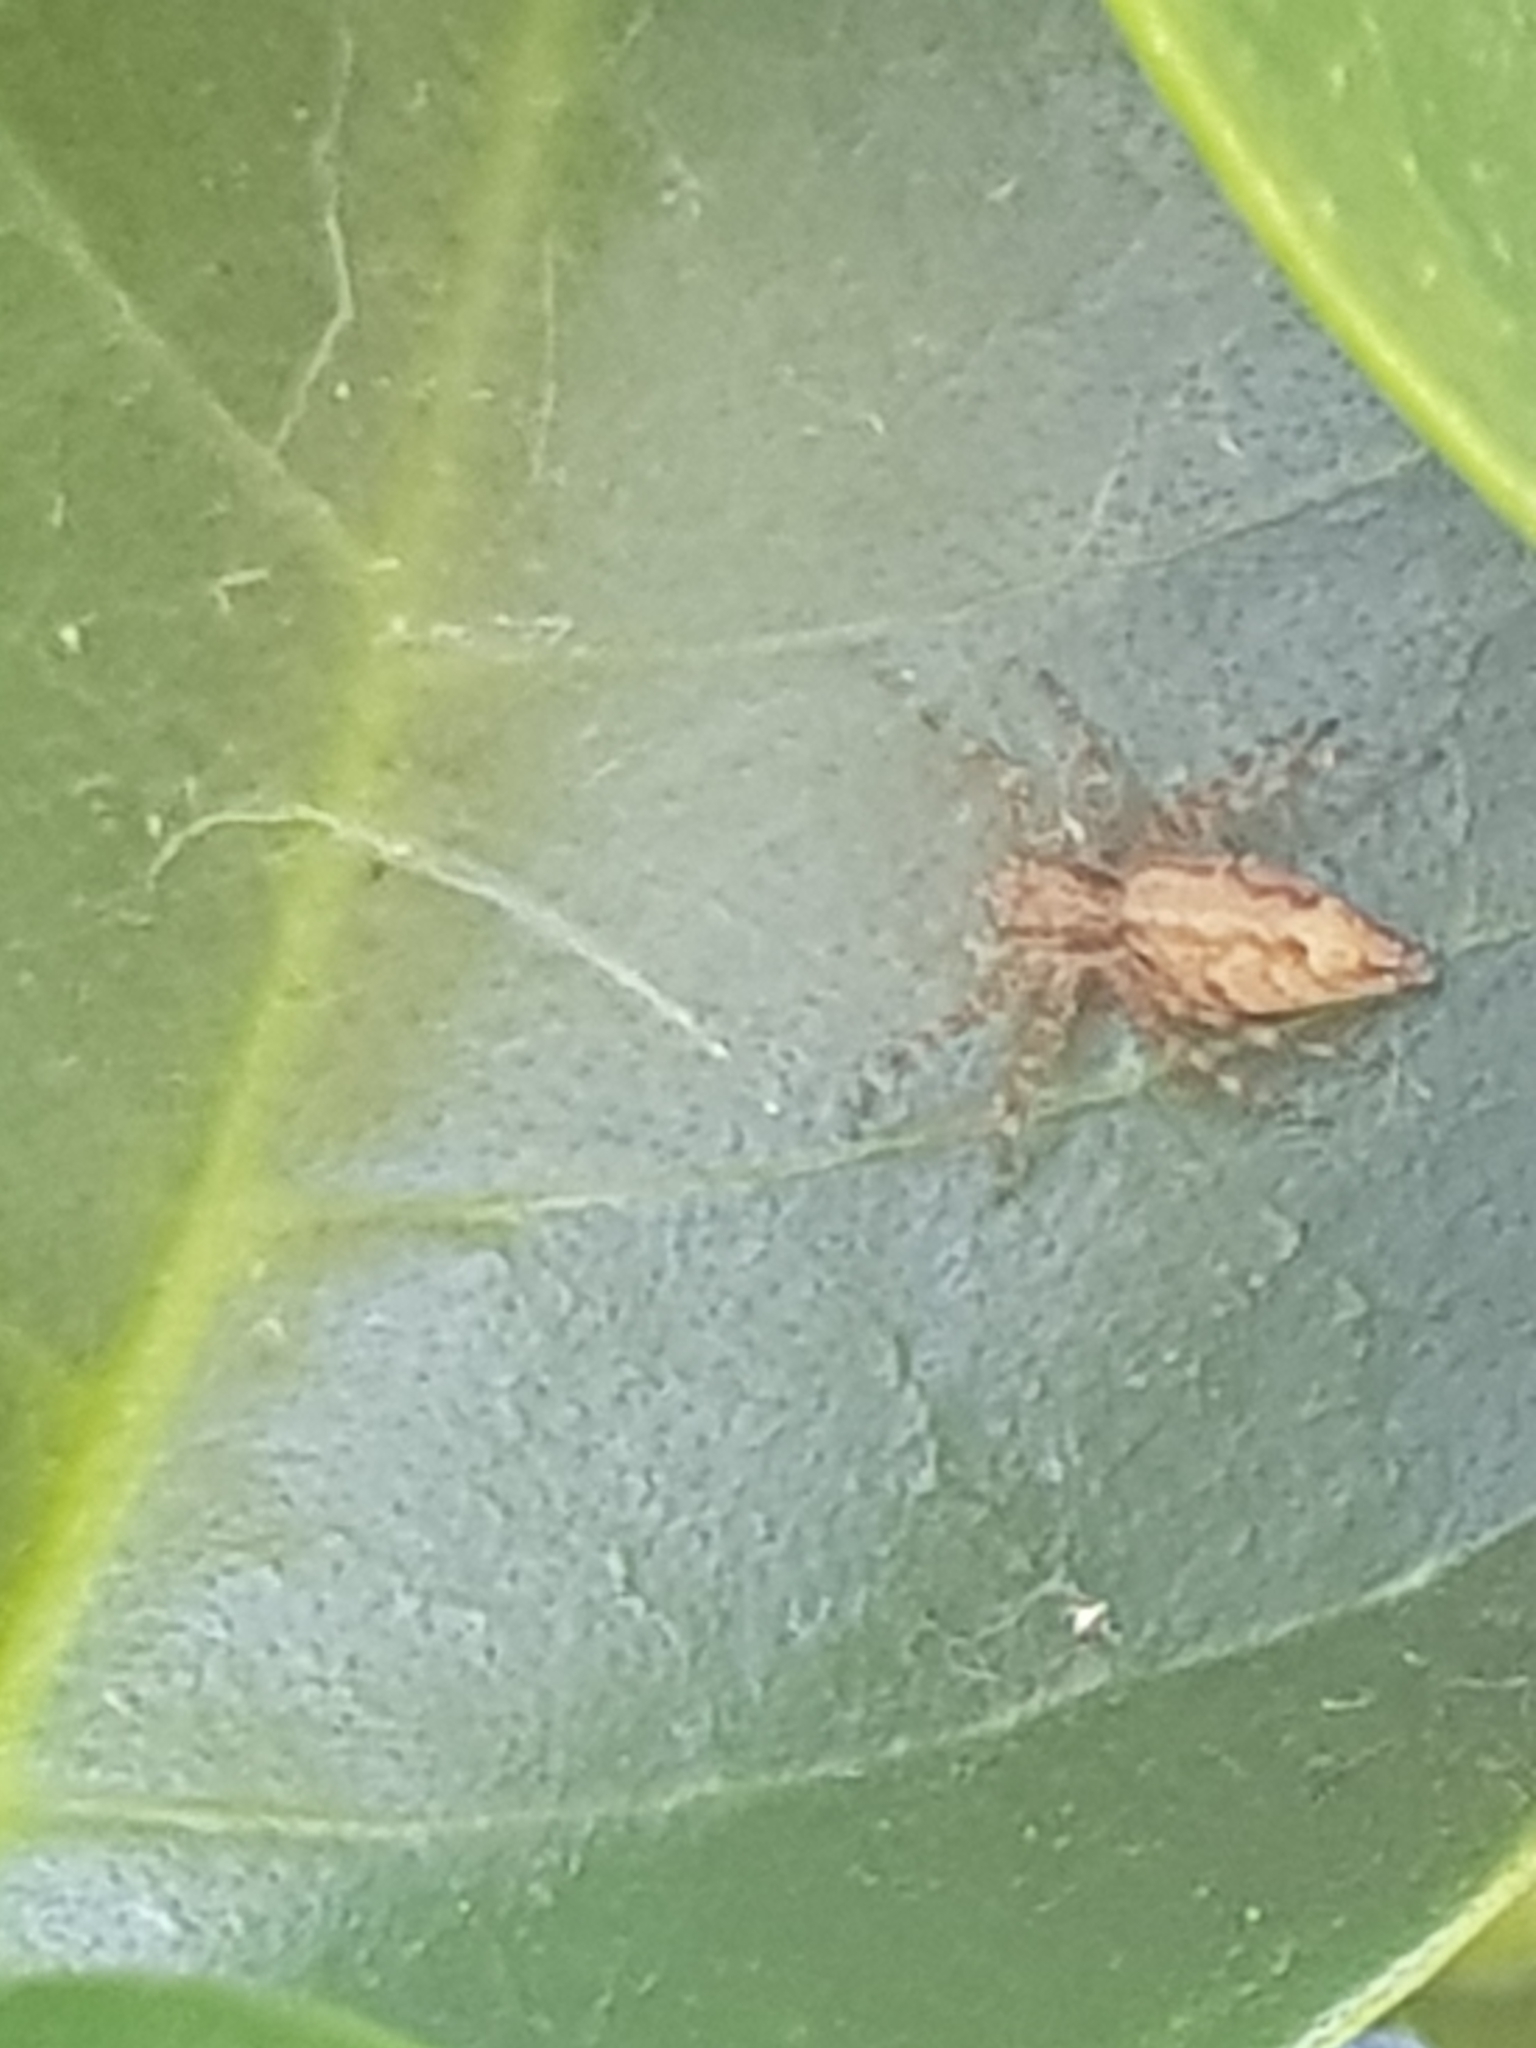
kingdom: Animalia
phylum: Arthropoda
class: Arachnida
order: Araneae
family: Salticidae
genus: Helpis
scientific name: Helpis minitabunda
